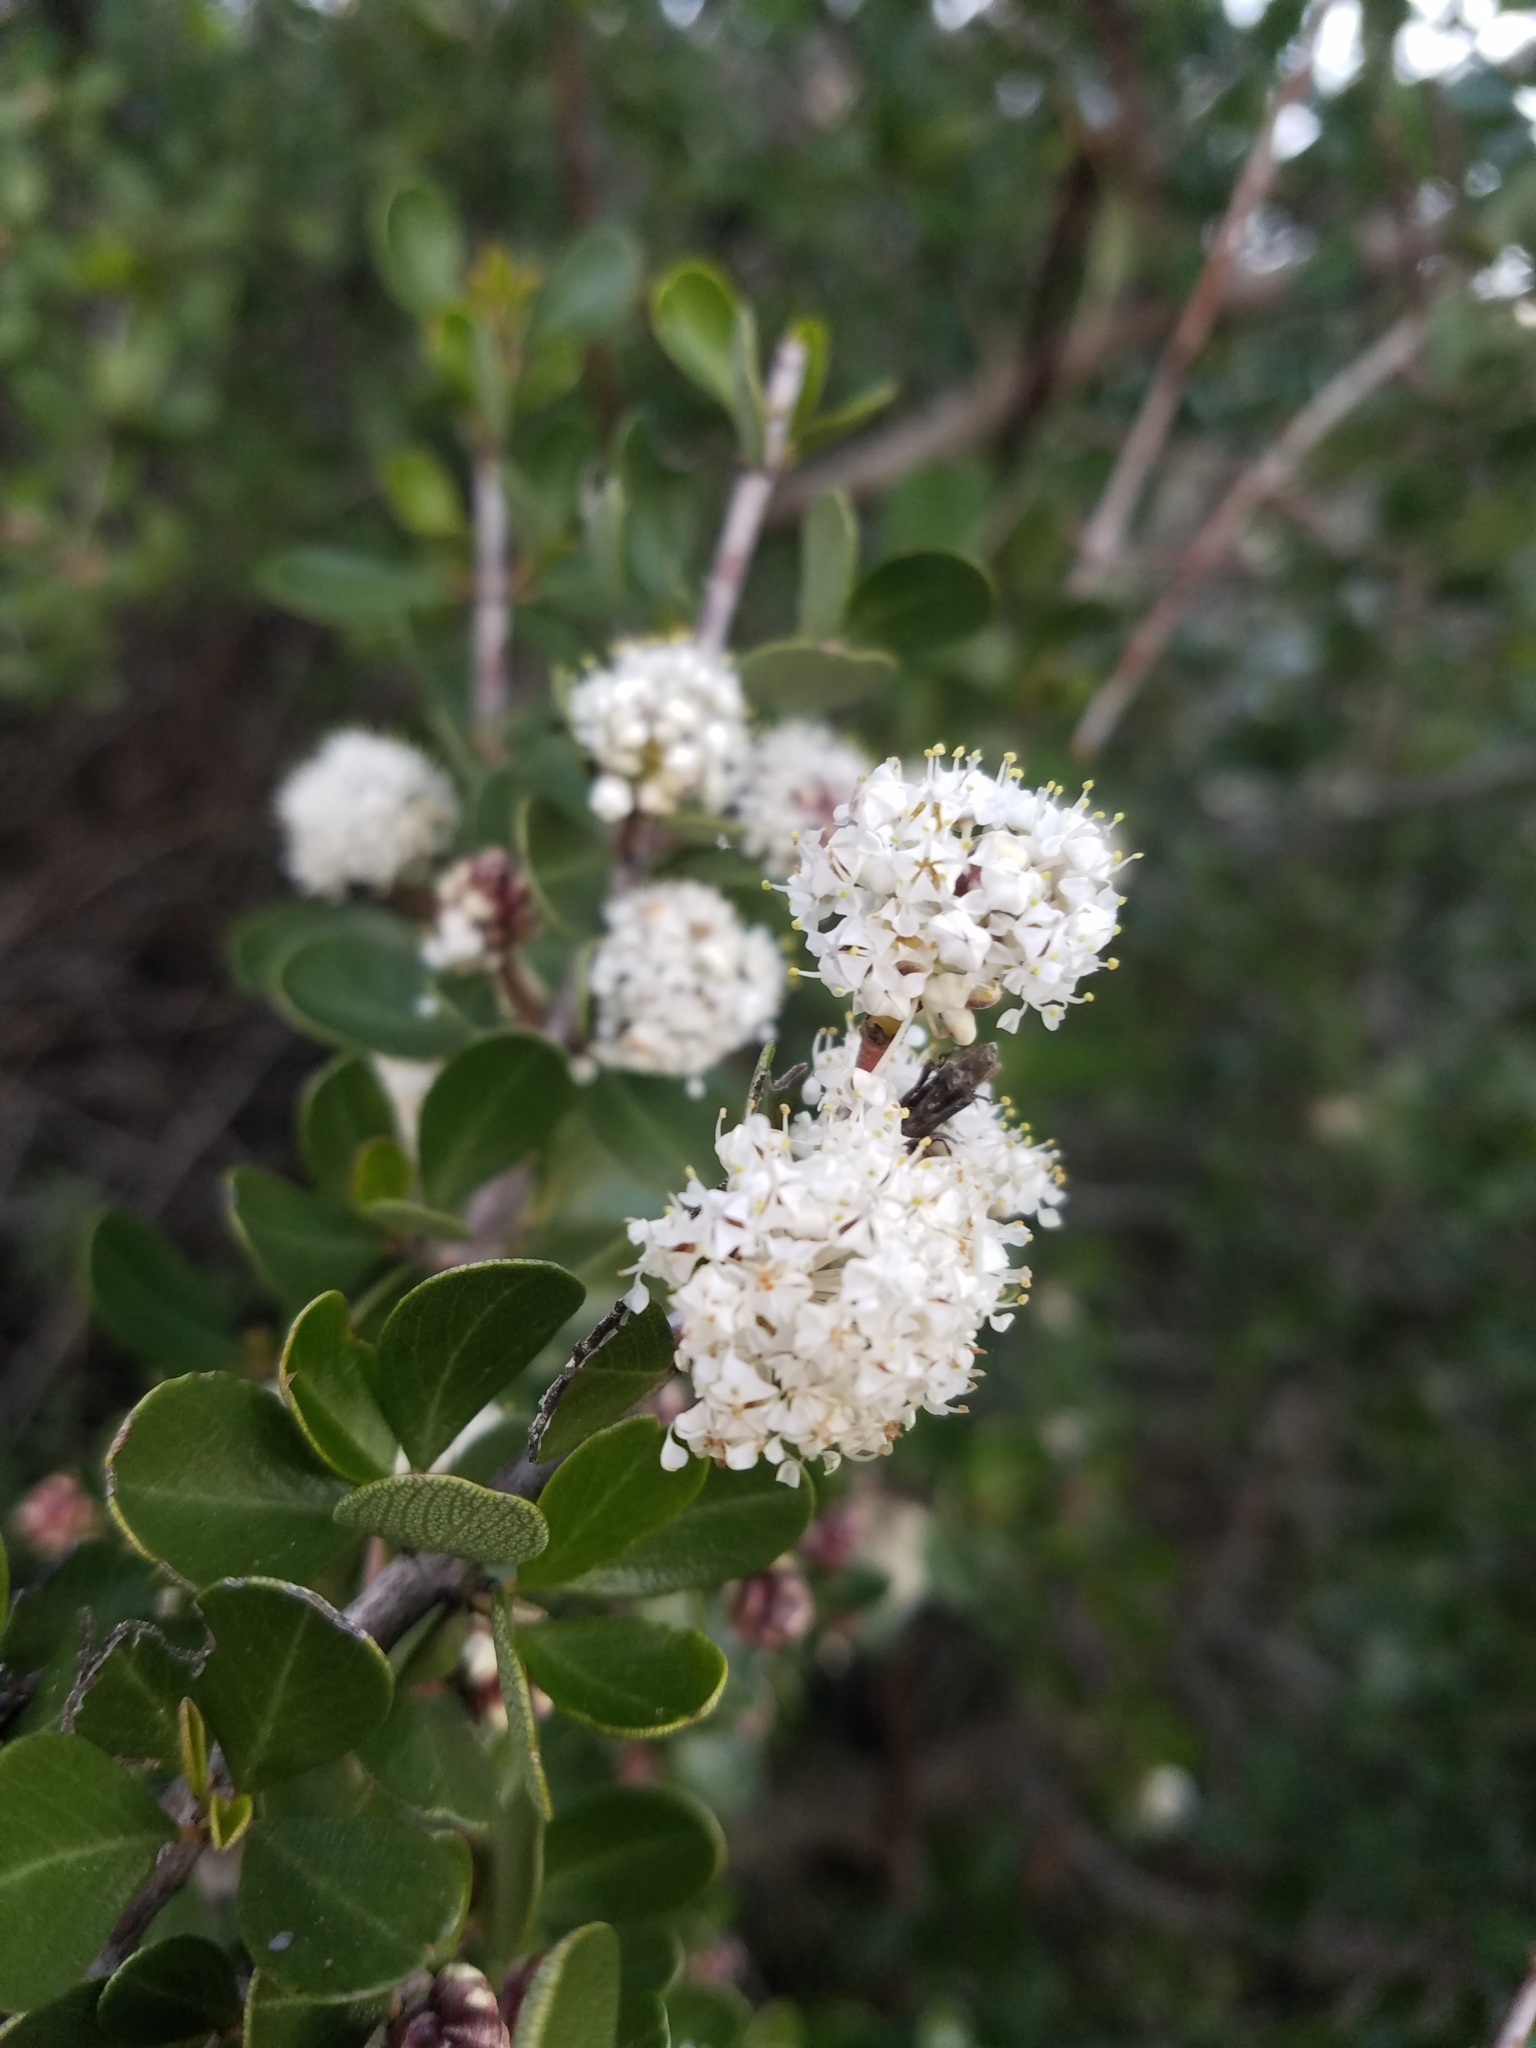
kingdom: Plantae
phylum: Tracheophyta
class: Magnoliopsida
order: Rosales
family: Rhamnaceae
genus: Ceanothus
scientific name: Ceanothus cuneatus
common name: Cuneate ceanothus
